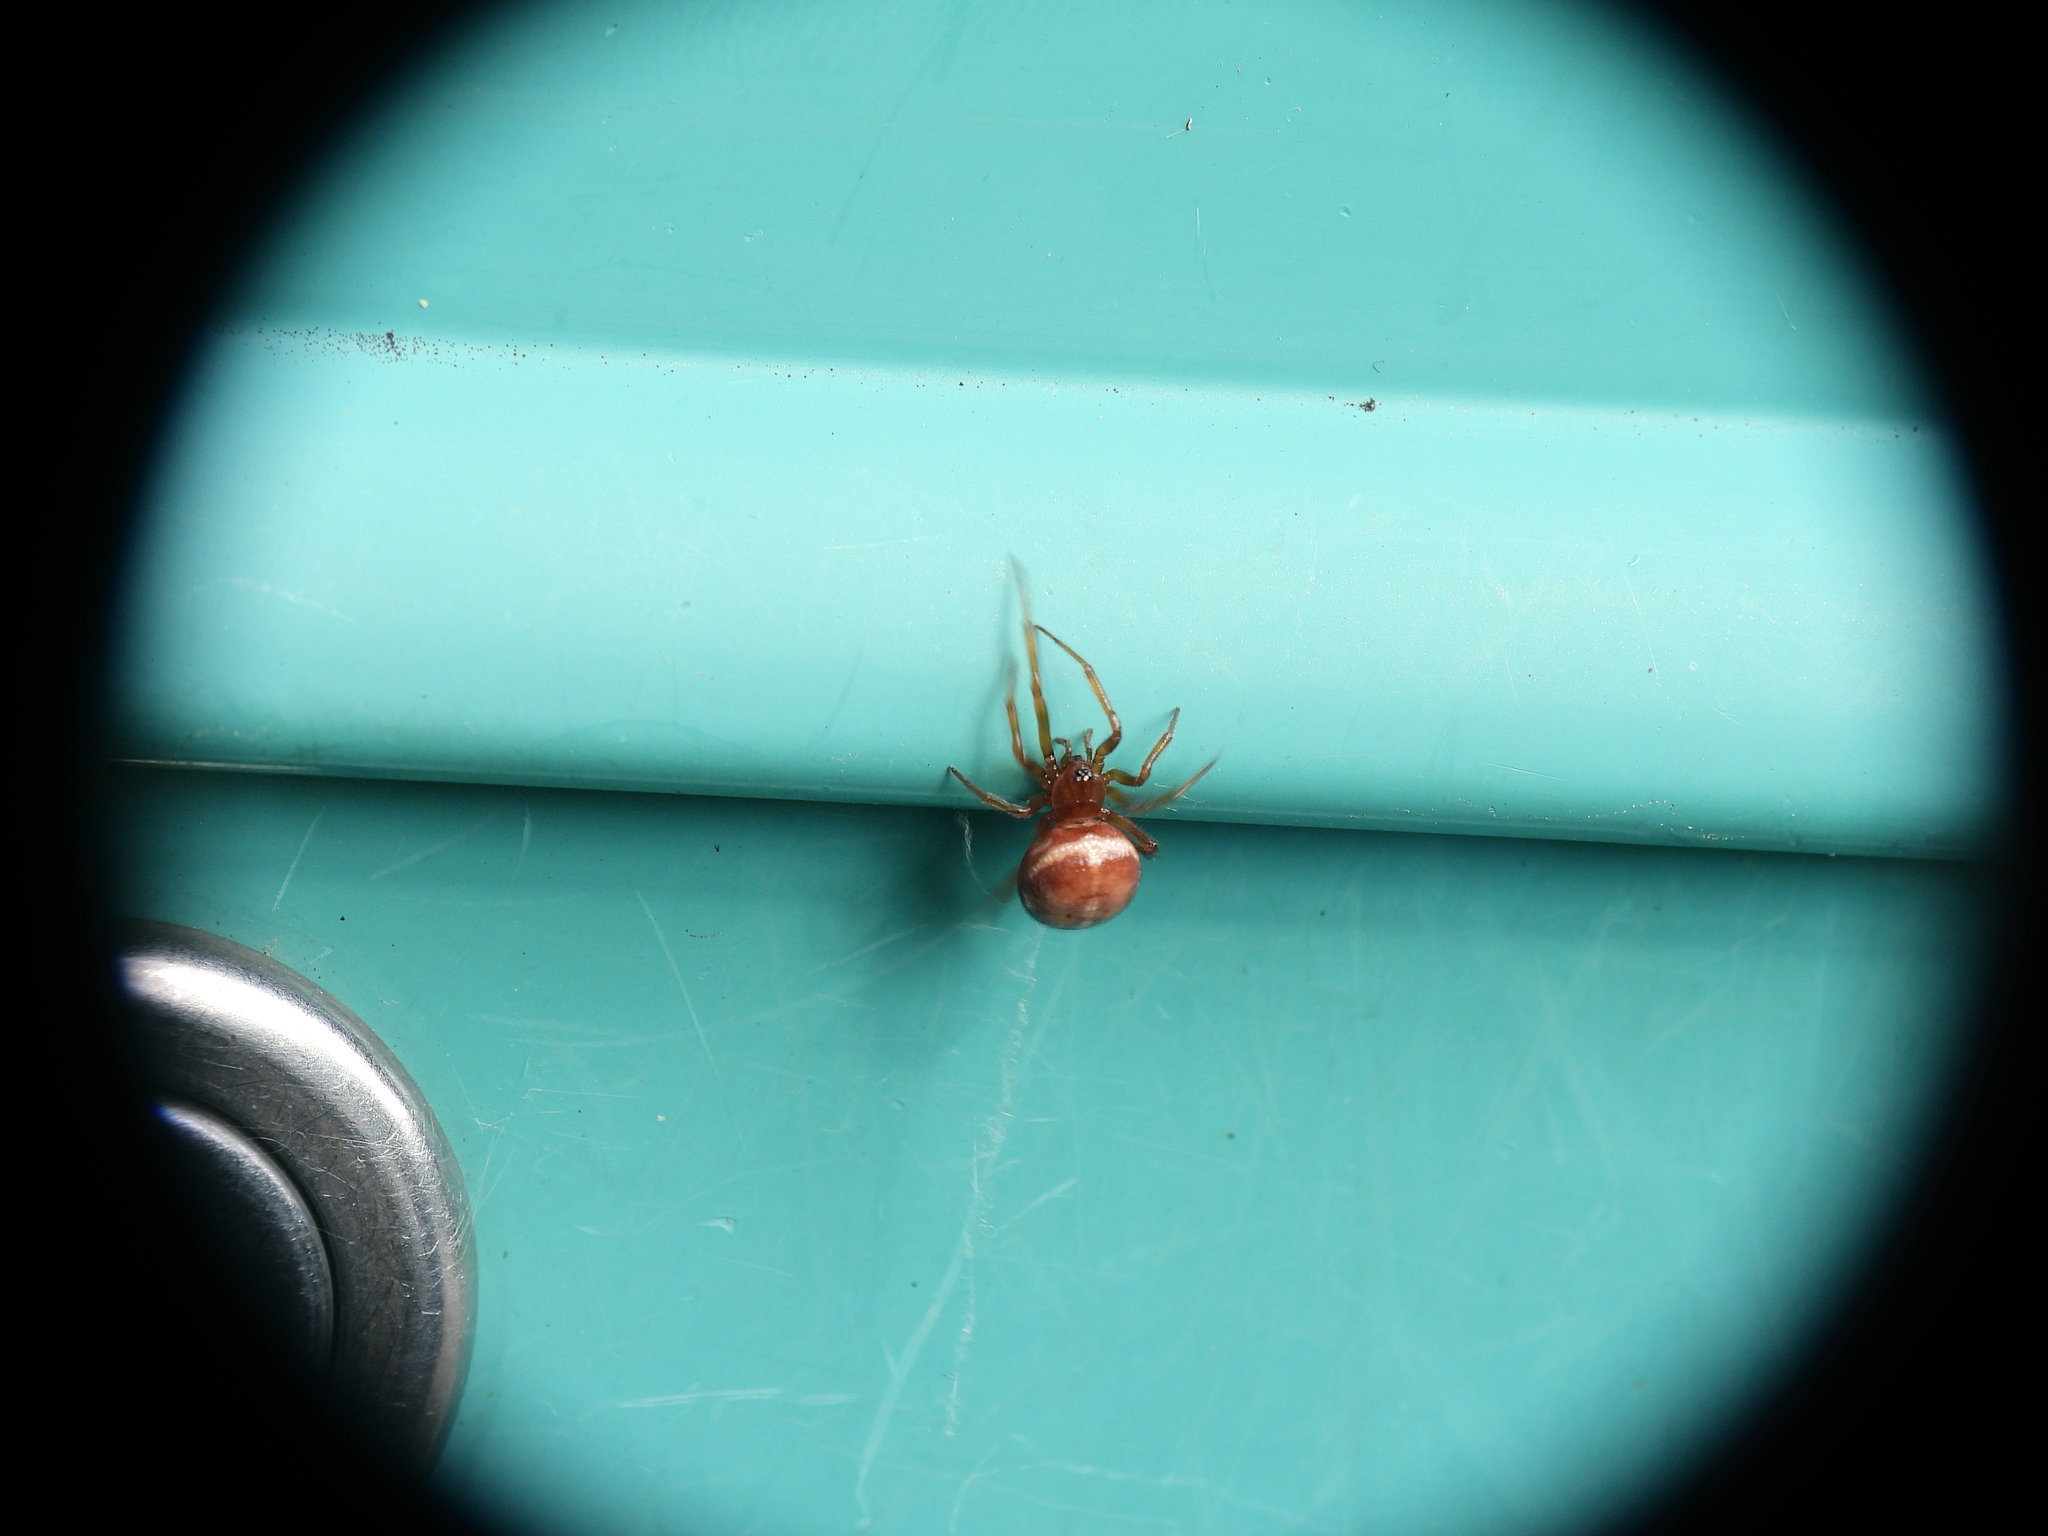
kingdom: Animalia
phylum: Arthropoda
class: Arachnida
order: Araneae
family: Theridiidae
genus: Steatoda
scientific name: Steatoda bipunctata
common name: False widow
